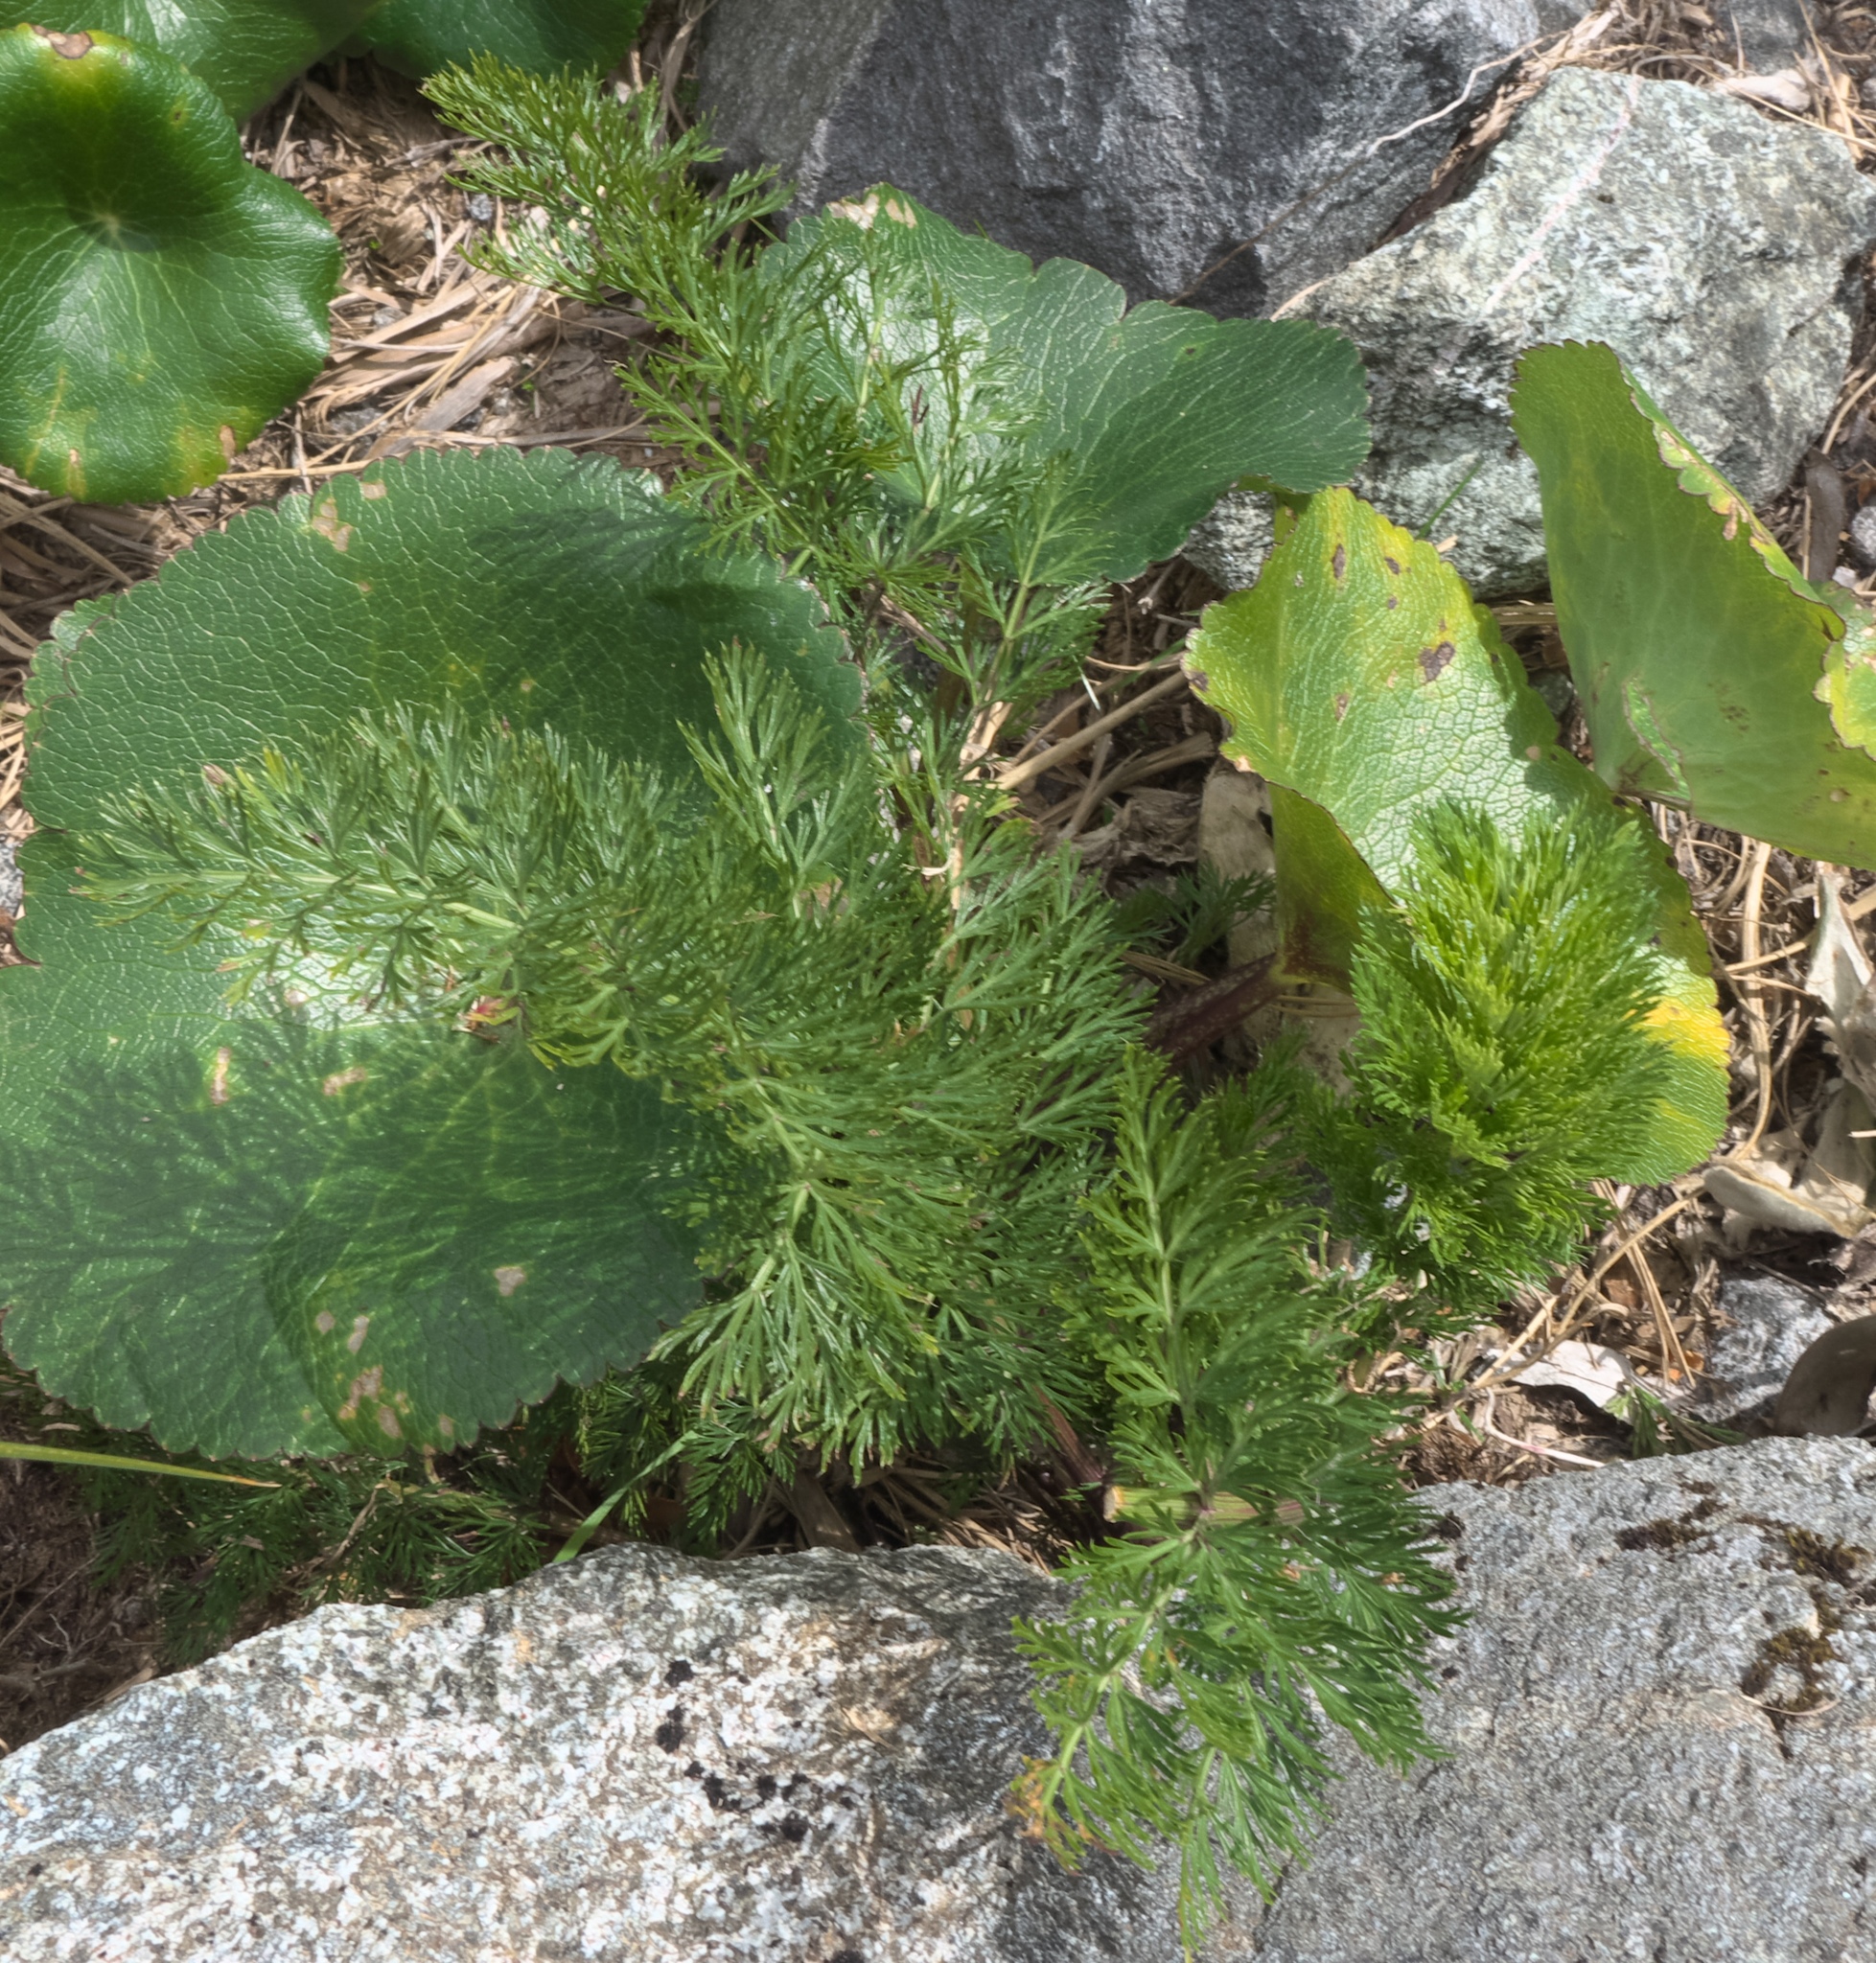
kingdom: Plantae
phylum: Tracheophyta
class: Magnoliopsida
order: Apiales
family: Apiaceae
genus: Anisotome
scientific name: Anisotome haastii
